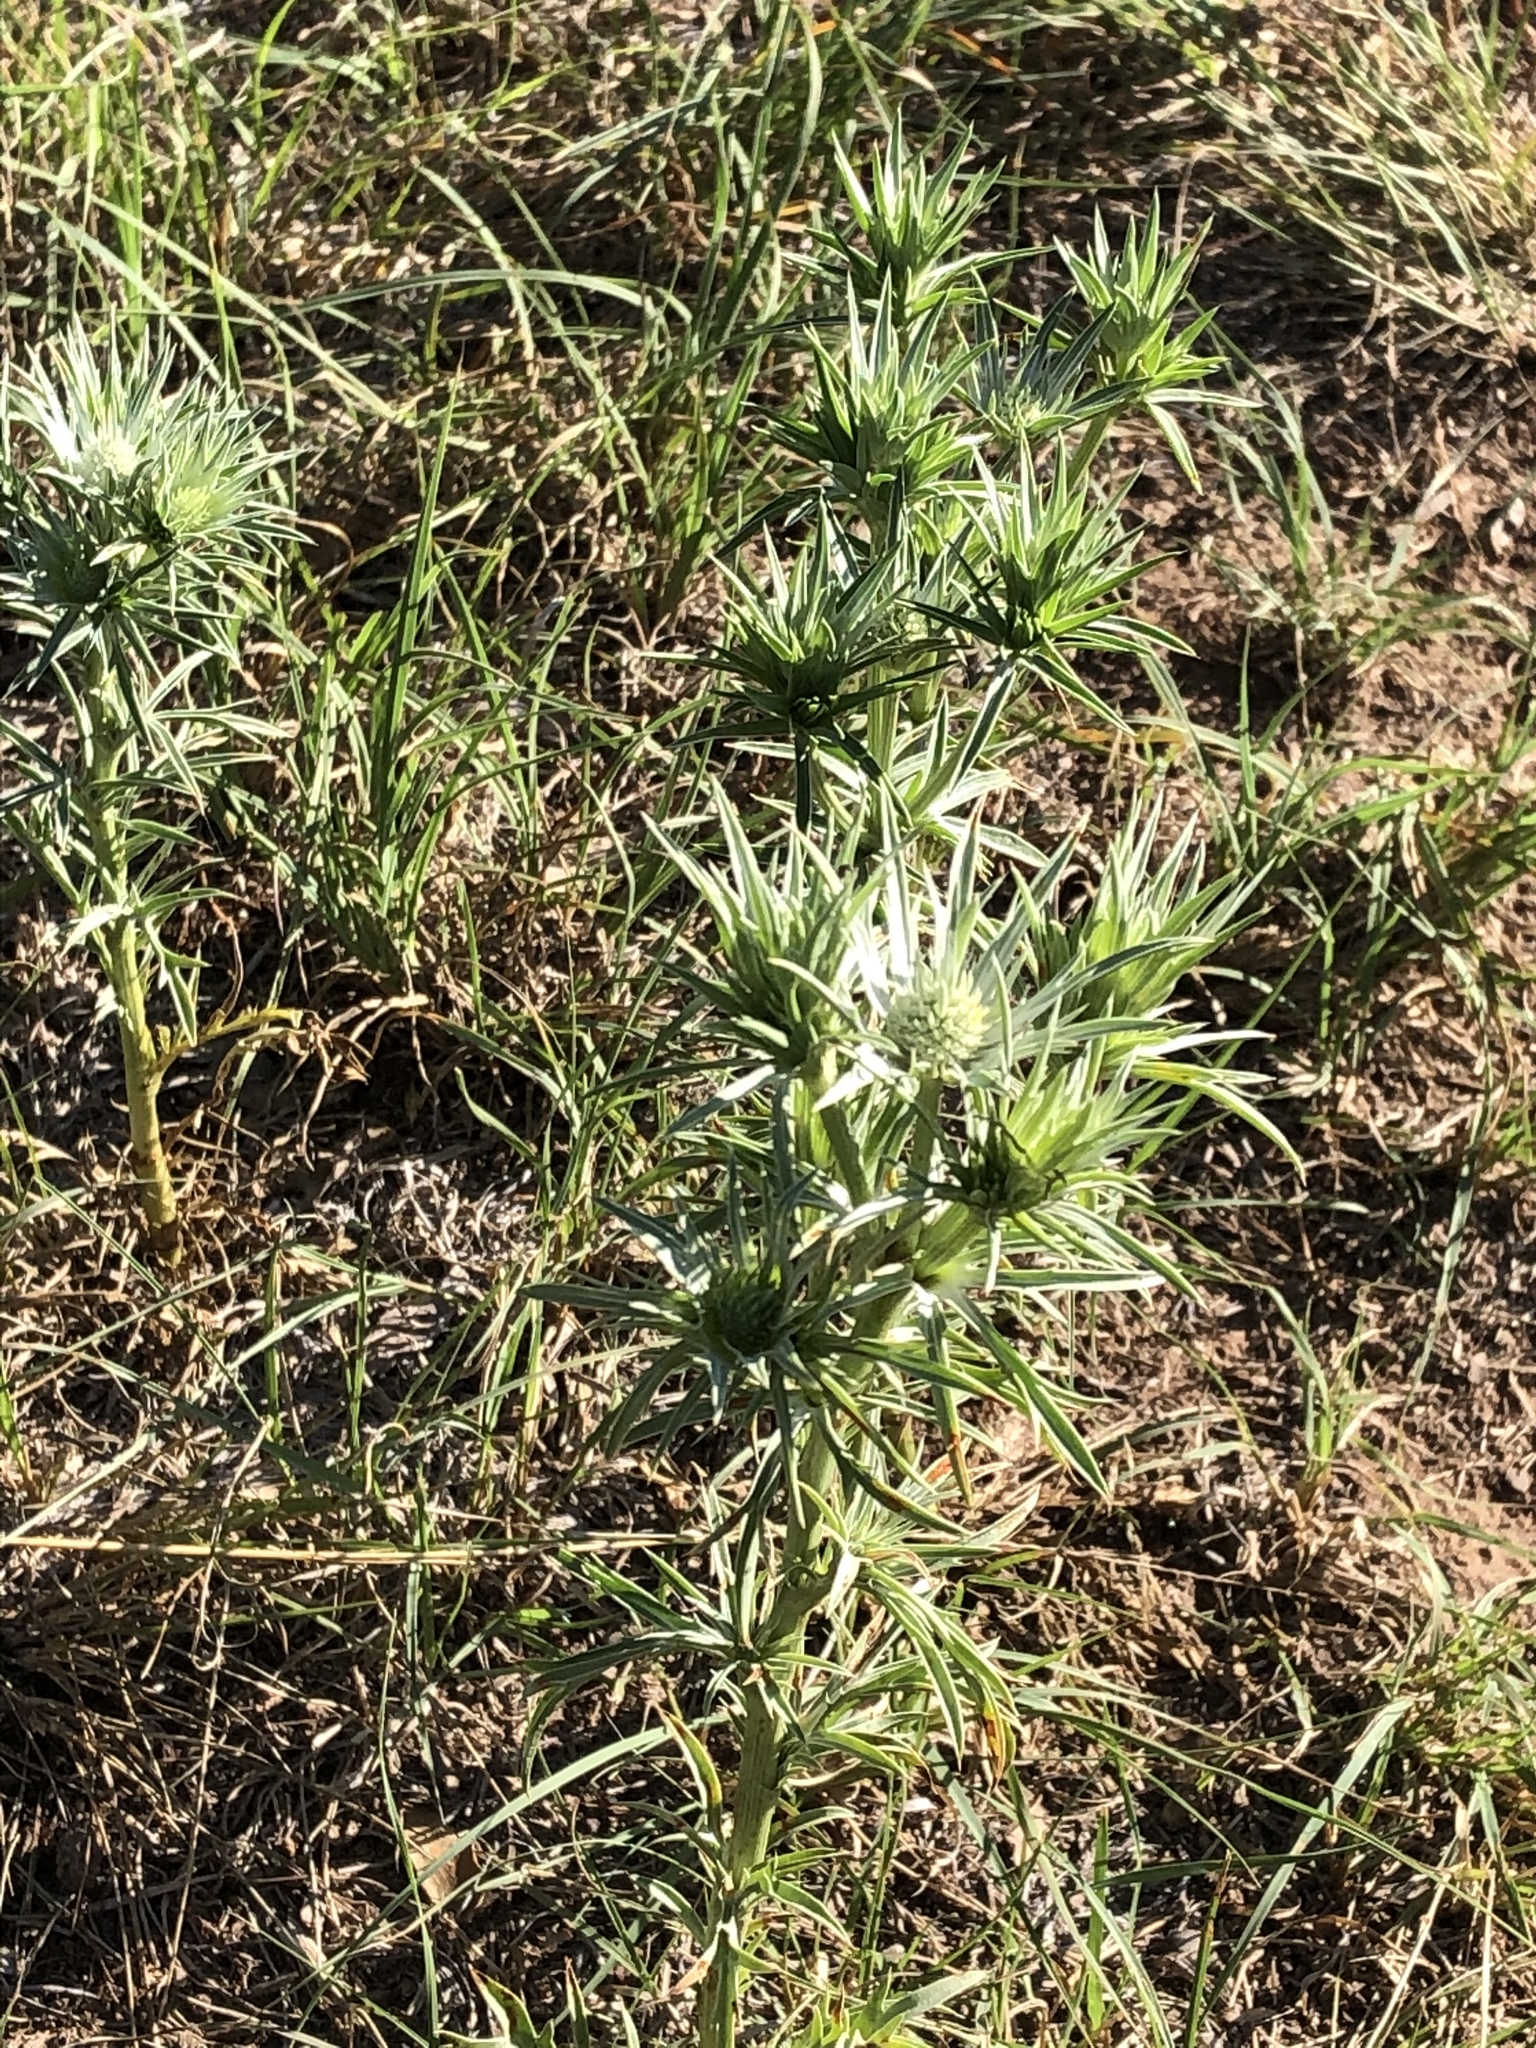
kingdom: Plantae
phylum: Tracheophyta
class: Magnoliopsida
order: Apiales
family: Apiaceae
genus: Eryngium
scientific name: Eryngium heterophyllum
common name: Mexican thistle
